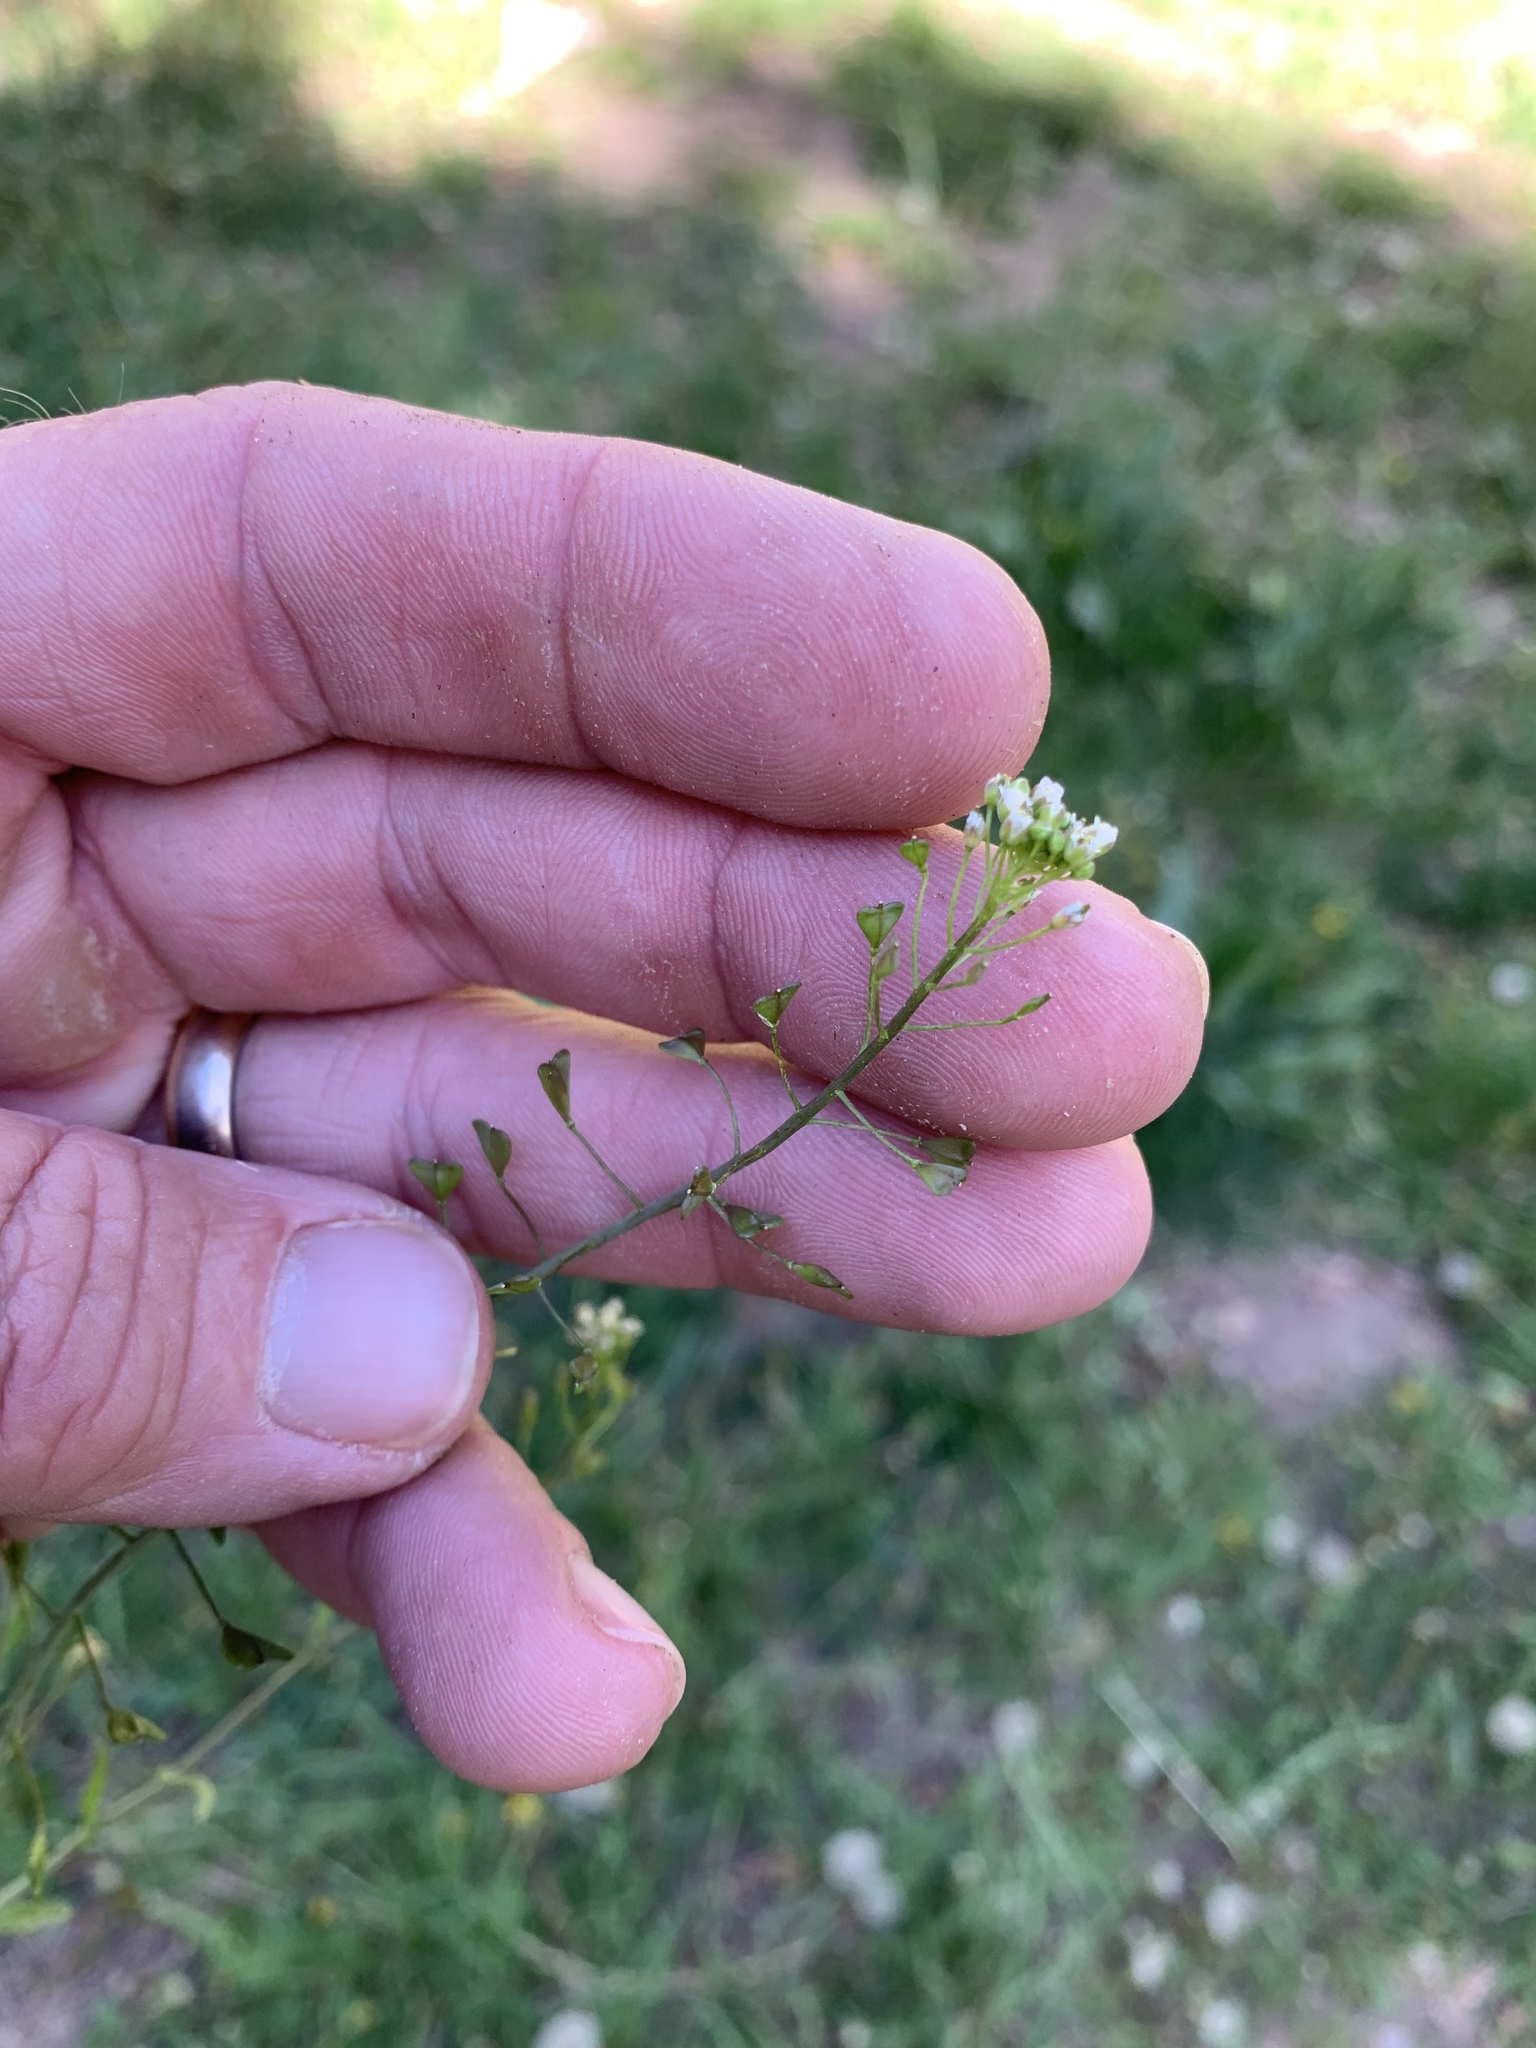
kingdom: Plantae
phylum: Tracheophyta
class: Magnoliopsida
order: Brassicales
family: Brassicaceae
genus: Capsella
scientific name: Capsella bursa-pastoris
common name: Shepherd's purse
